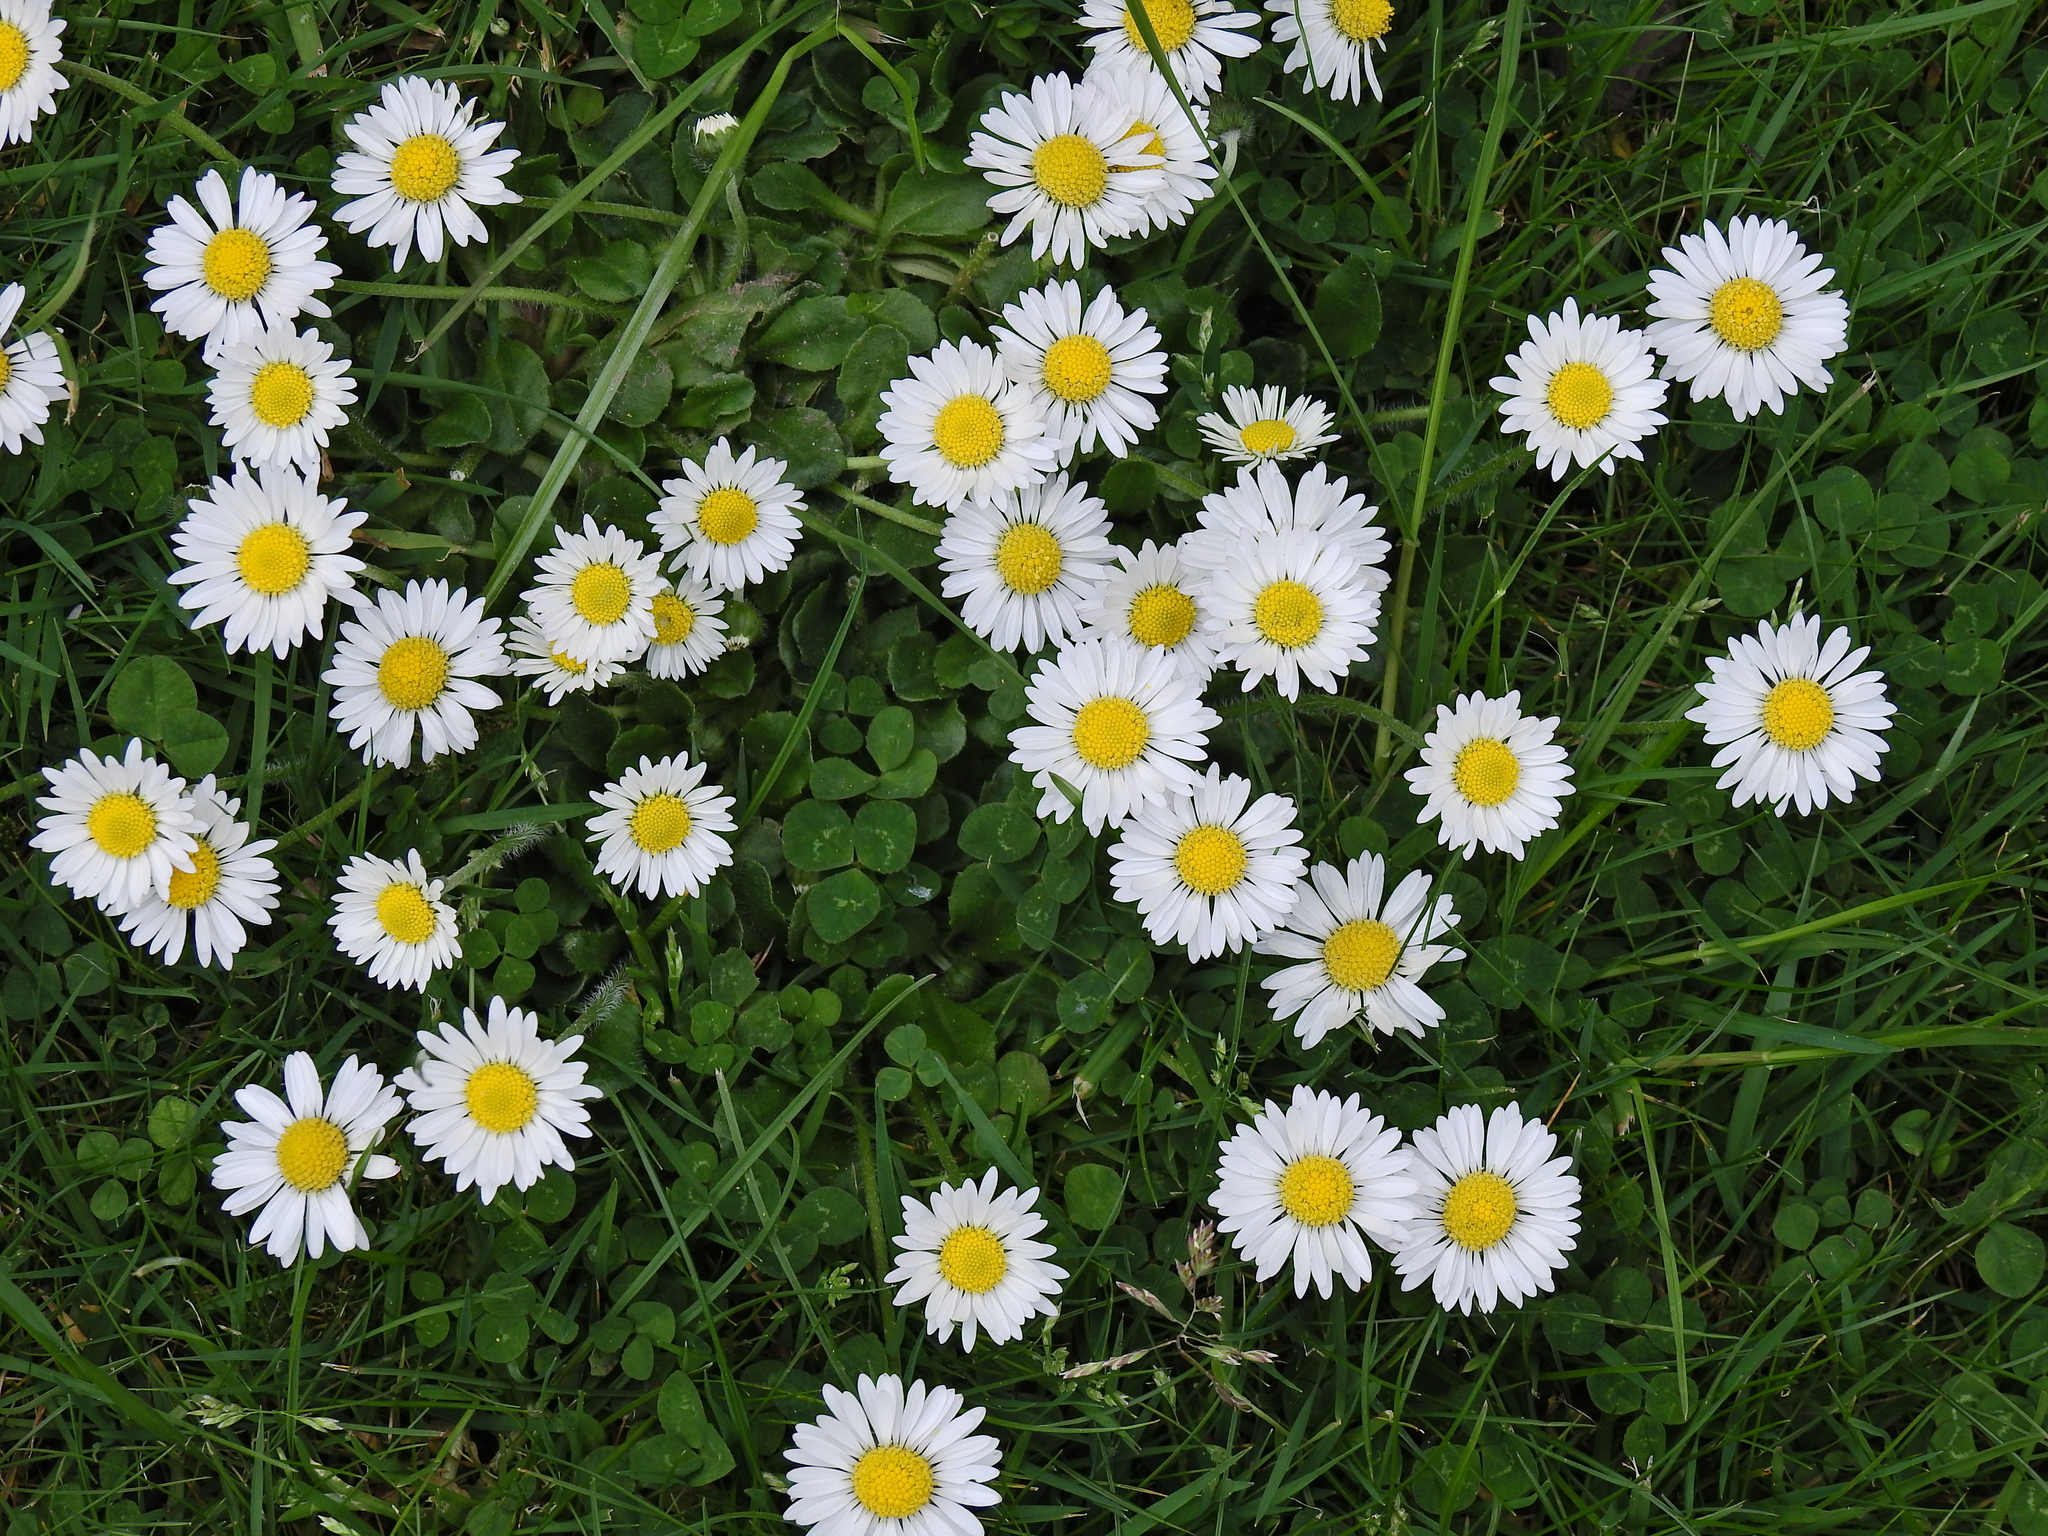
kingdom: Plantae
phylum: Tracheophyta
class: Magnoliopsida
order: Asterales
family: Asteraceae
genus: Bellis
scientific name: Bellis perennis
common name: Lawndaisy
